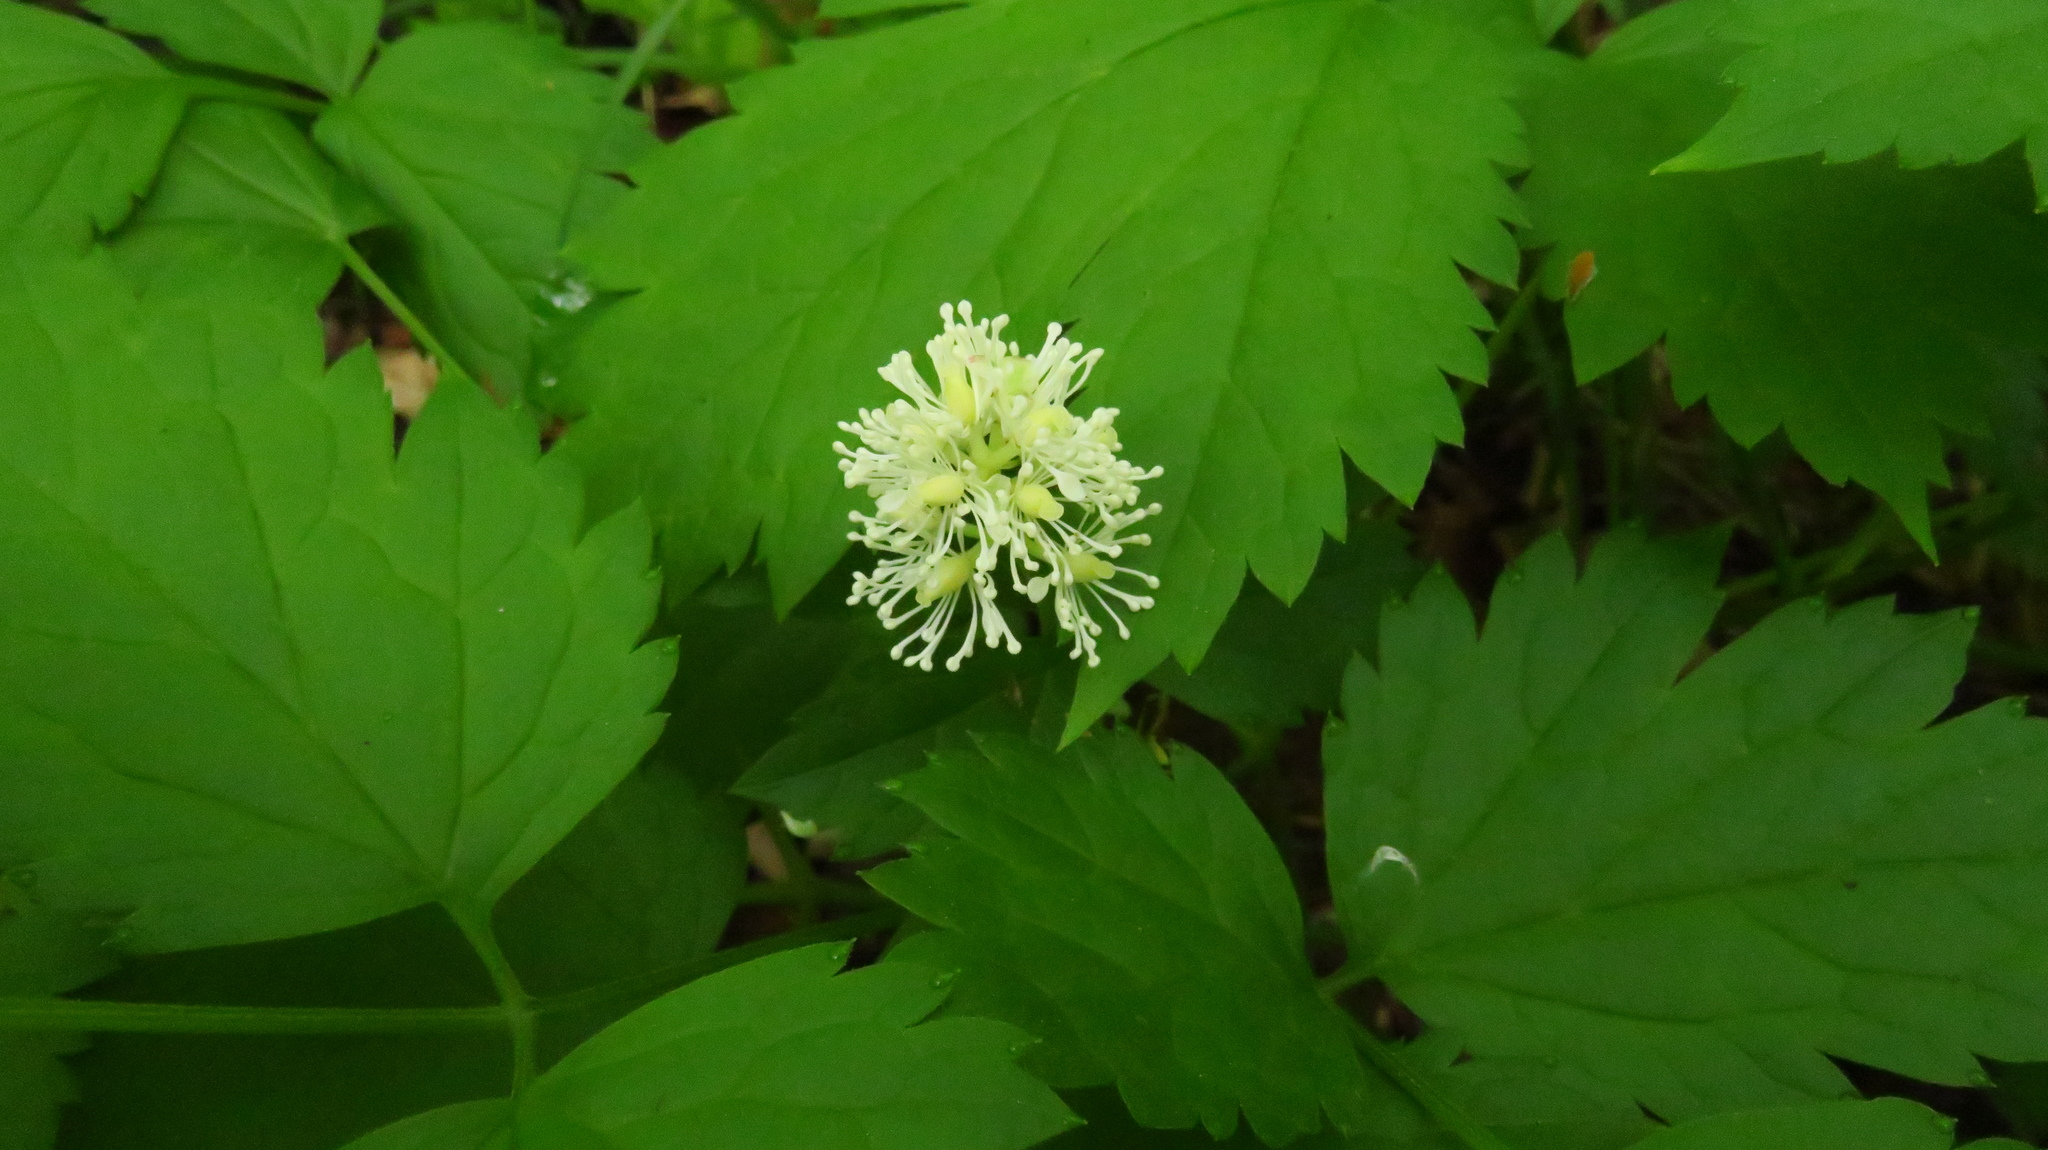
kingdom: Plantae
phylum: Tracheophyta
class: Magnoliopsida
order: Ranunculales
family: Ranunculaceae
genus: Actaea
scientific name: Actaea spicata
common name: Baneberry
